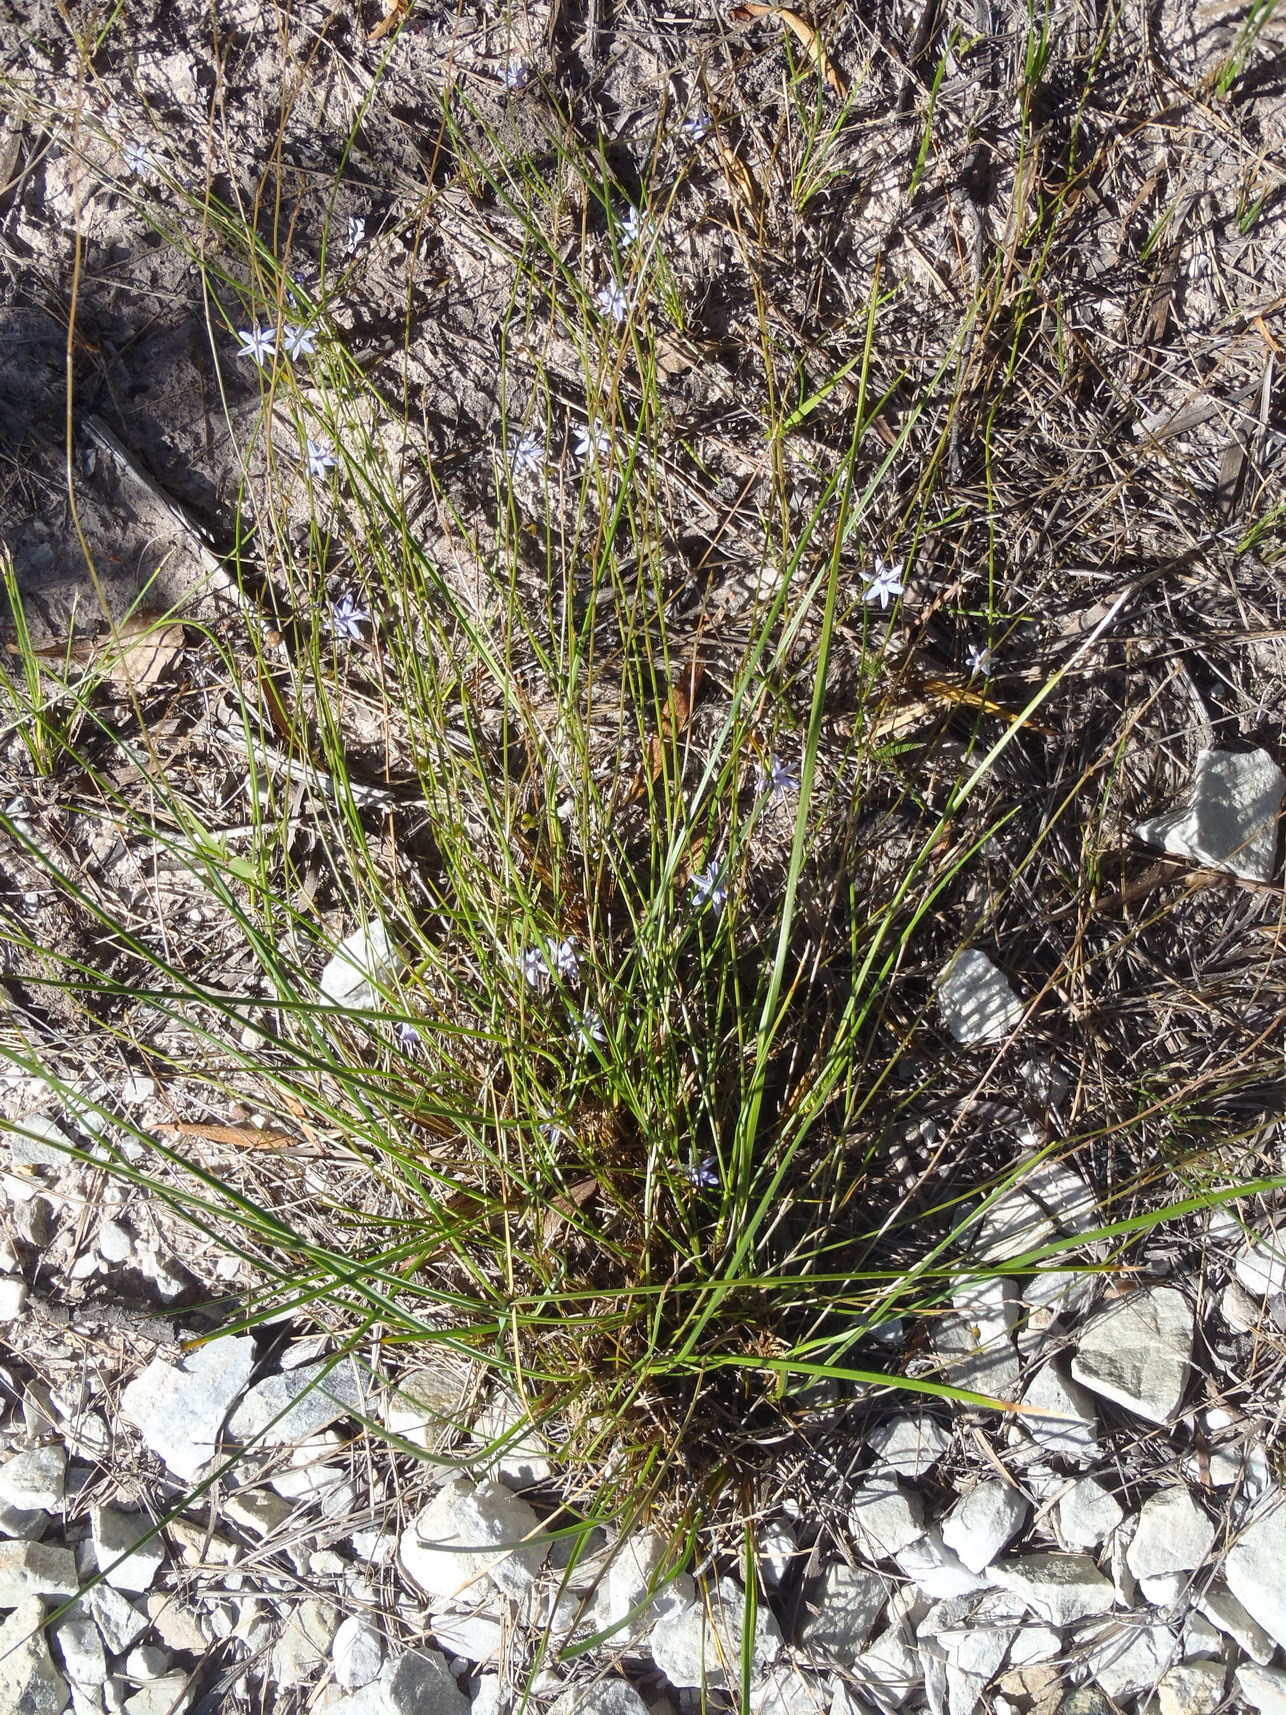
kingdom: Plantae
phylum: Tracheophyta
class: Liliopsida
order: Asparagales
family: Asphodelaceae
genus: Caesia
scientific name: Caesia contorta
